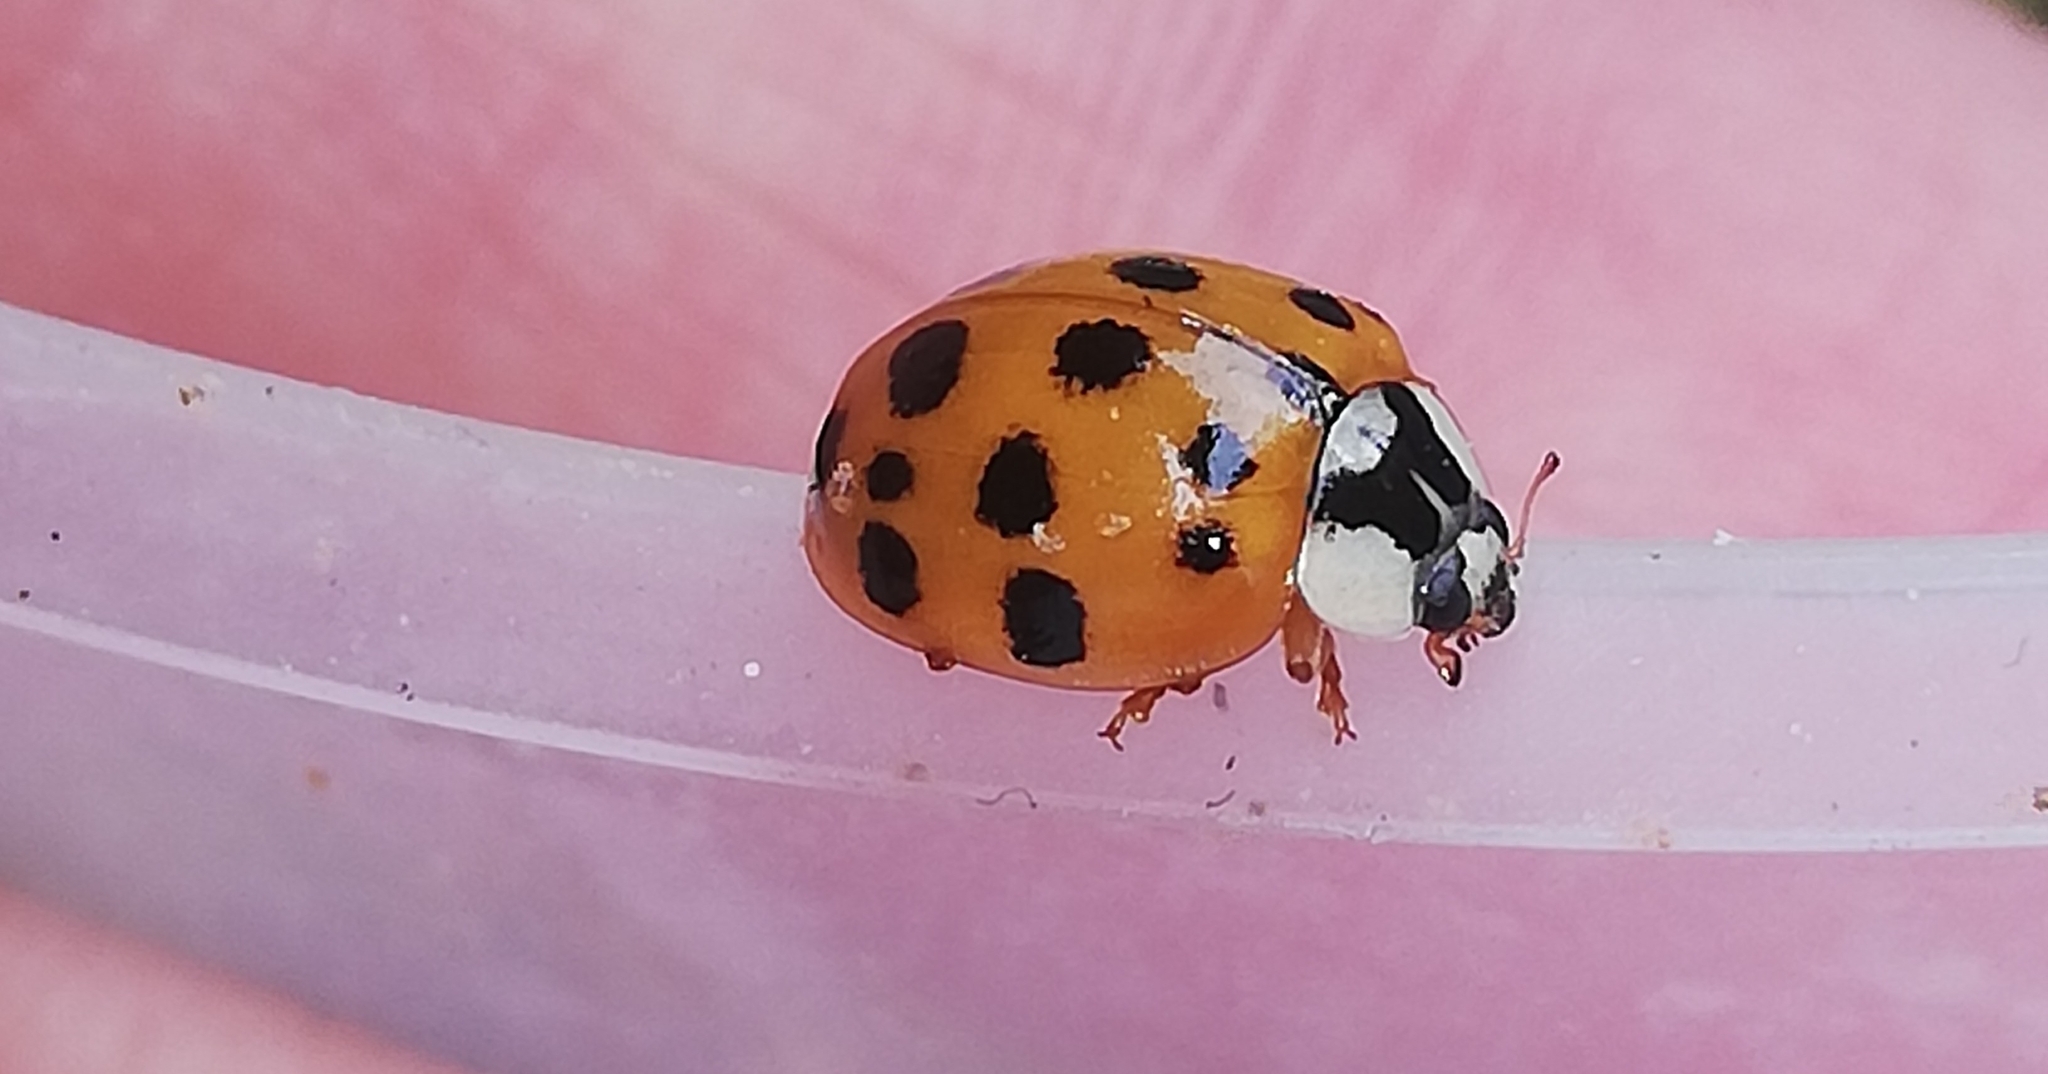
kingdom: Animalia
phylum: Arthropoda
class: Insecta
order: Coleoptera
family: Coccinellidae
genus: Harmonia
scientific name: Harmonia axyridis
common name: Harlequin ladybird
